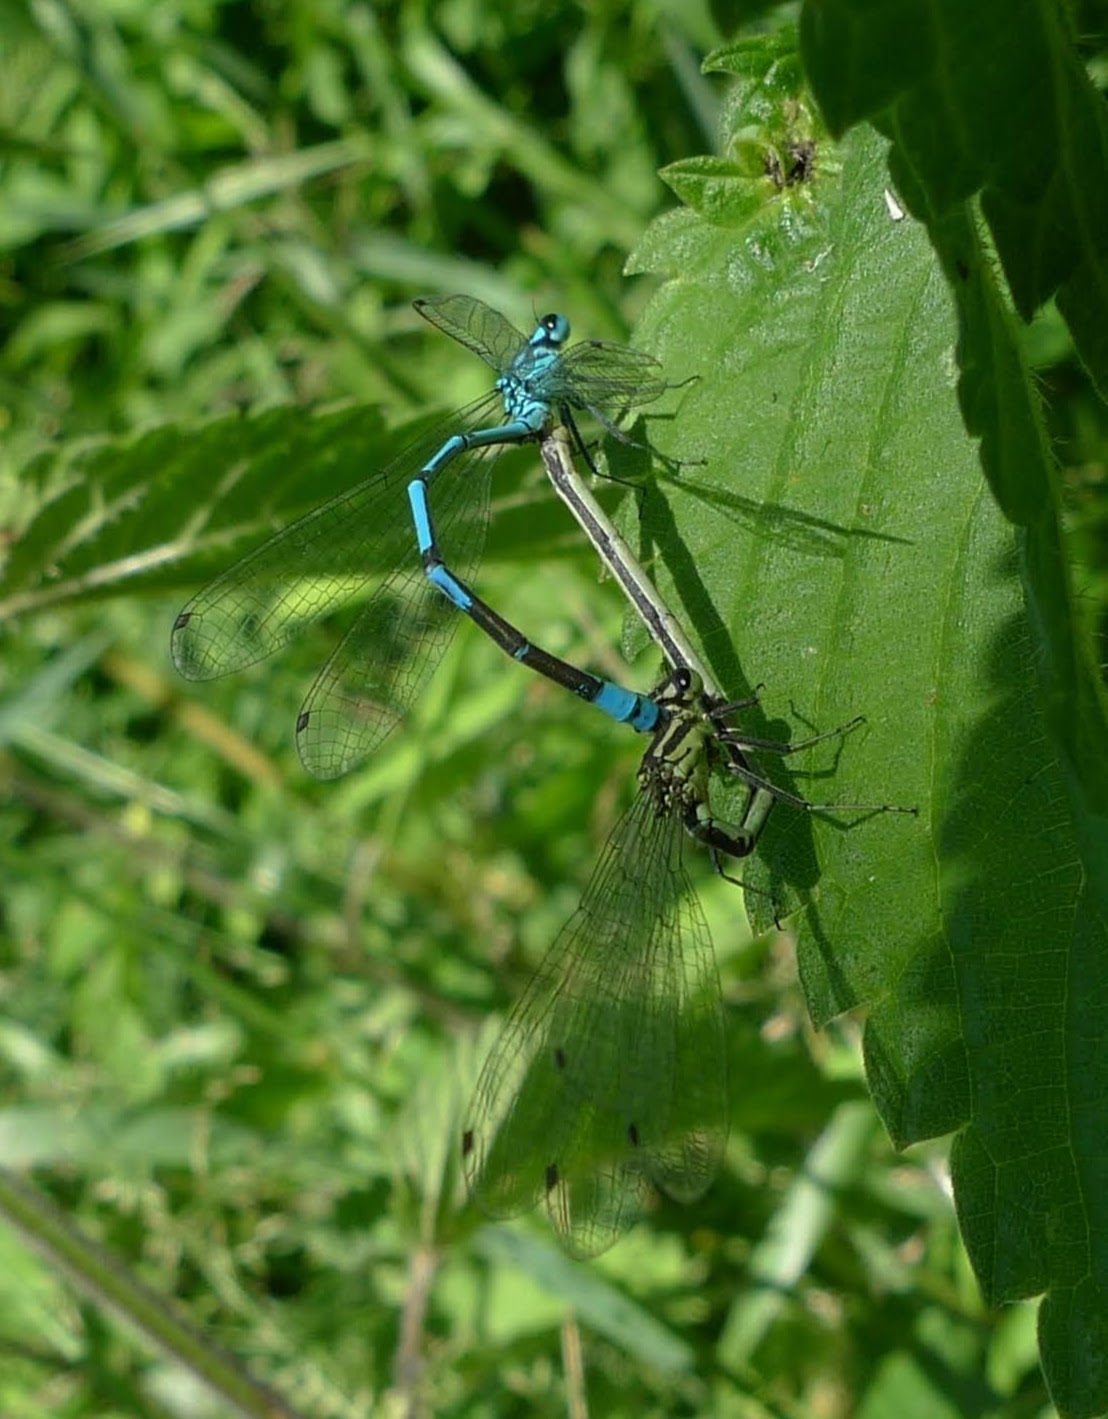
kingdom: Animalia
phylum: Arthropoda
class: Insecta
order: Odonata
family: Coenagrionidae
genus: Coenagrion
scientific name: Coenagrion puella
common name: Azure damselfly
